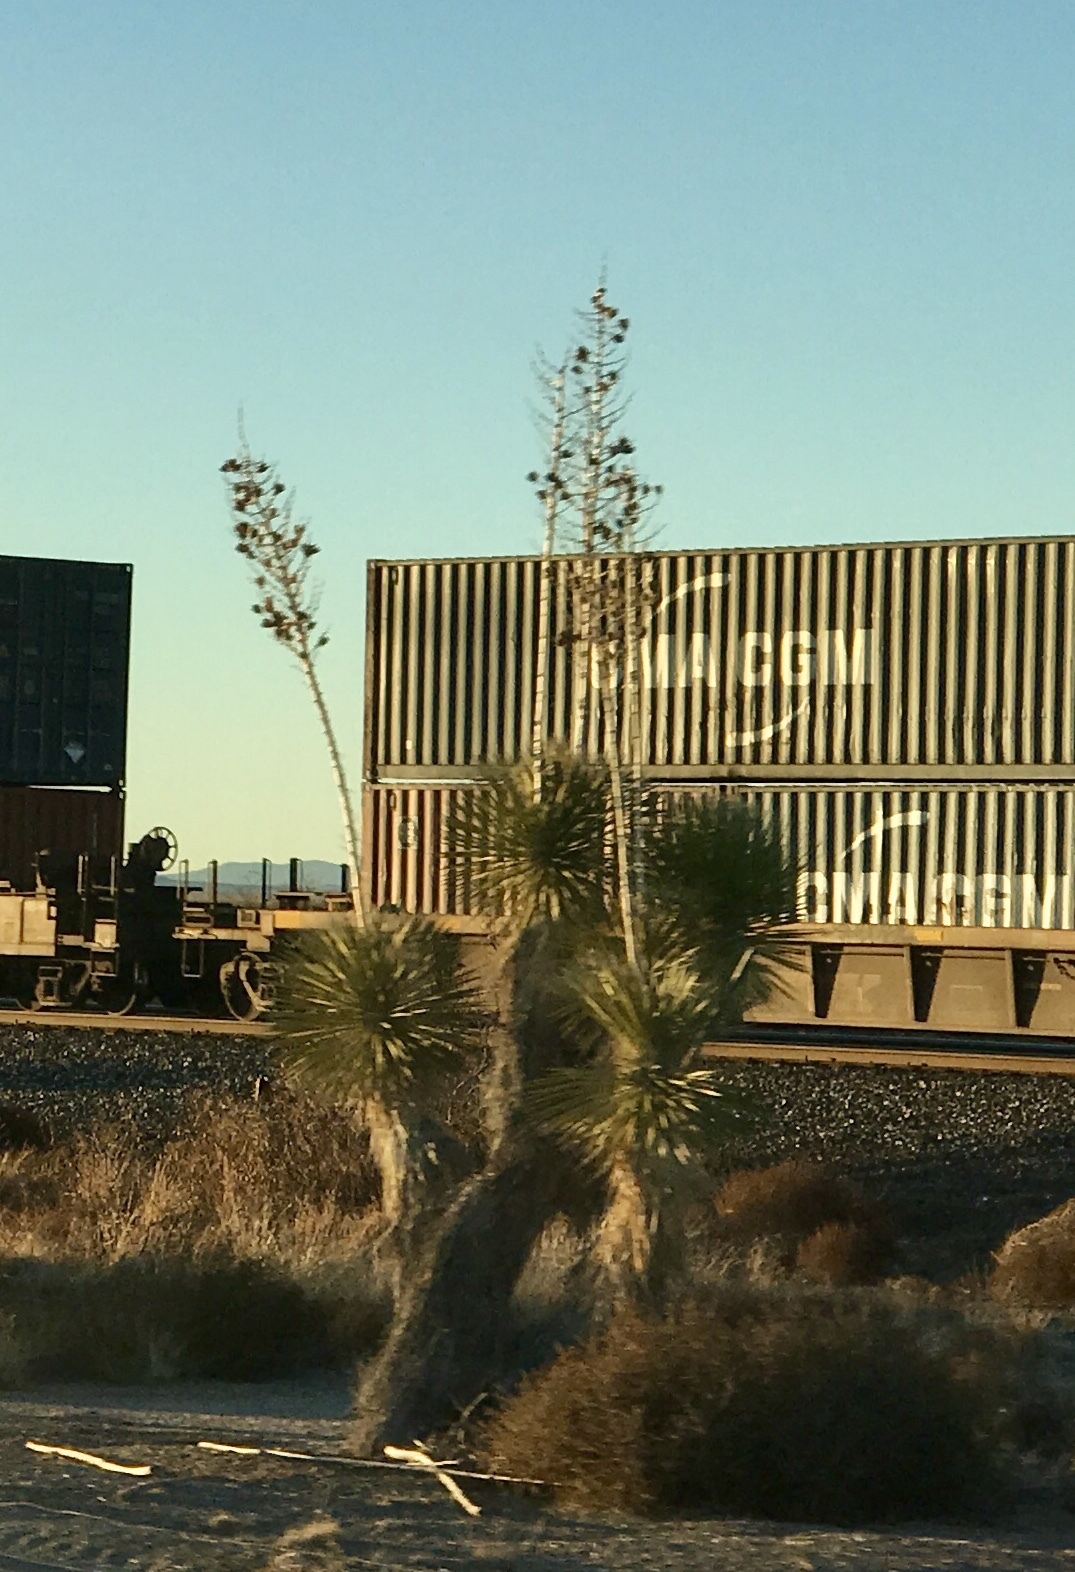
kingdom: Plantae
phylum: Tracheophyta
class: Liliopsida
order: Asparagales
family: Asparagaceae
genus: Yucca
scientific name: Yucca elata
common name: Palmella
